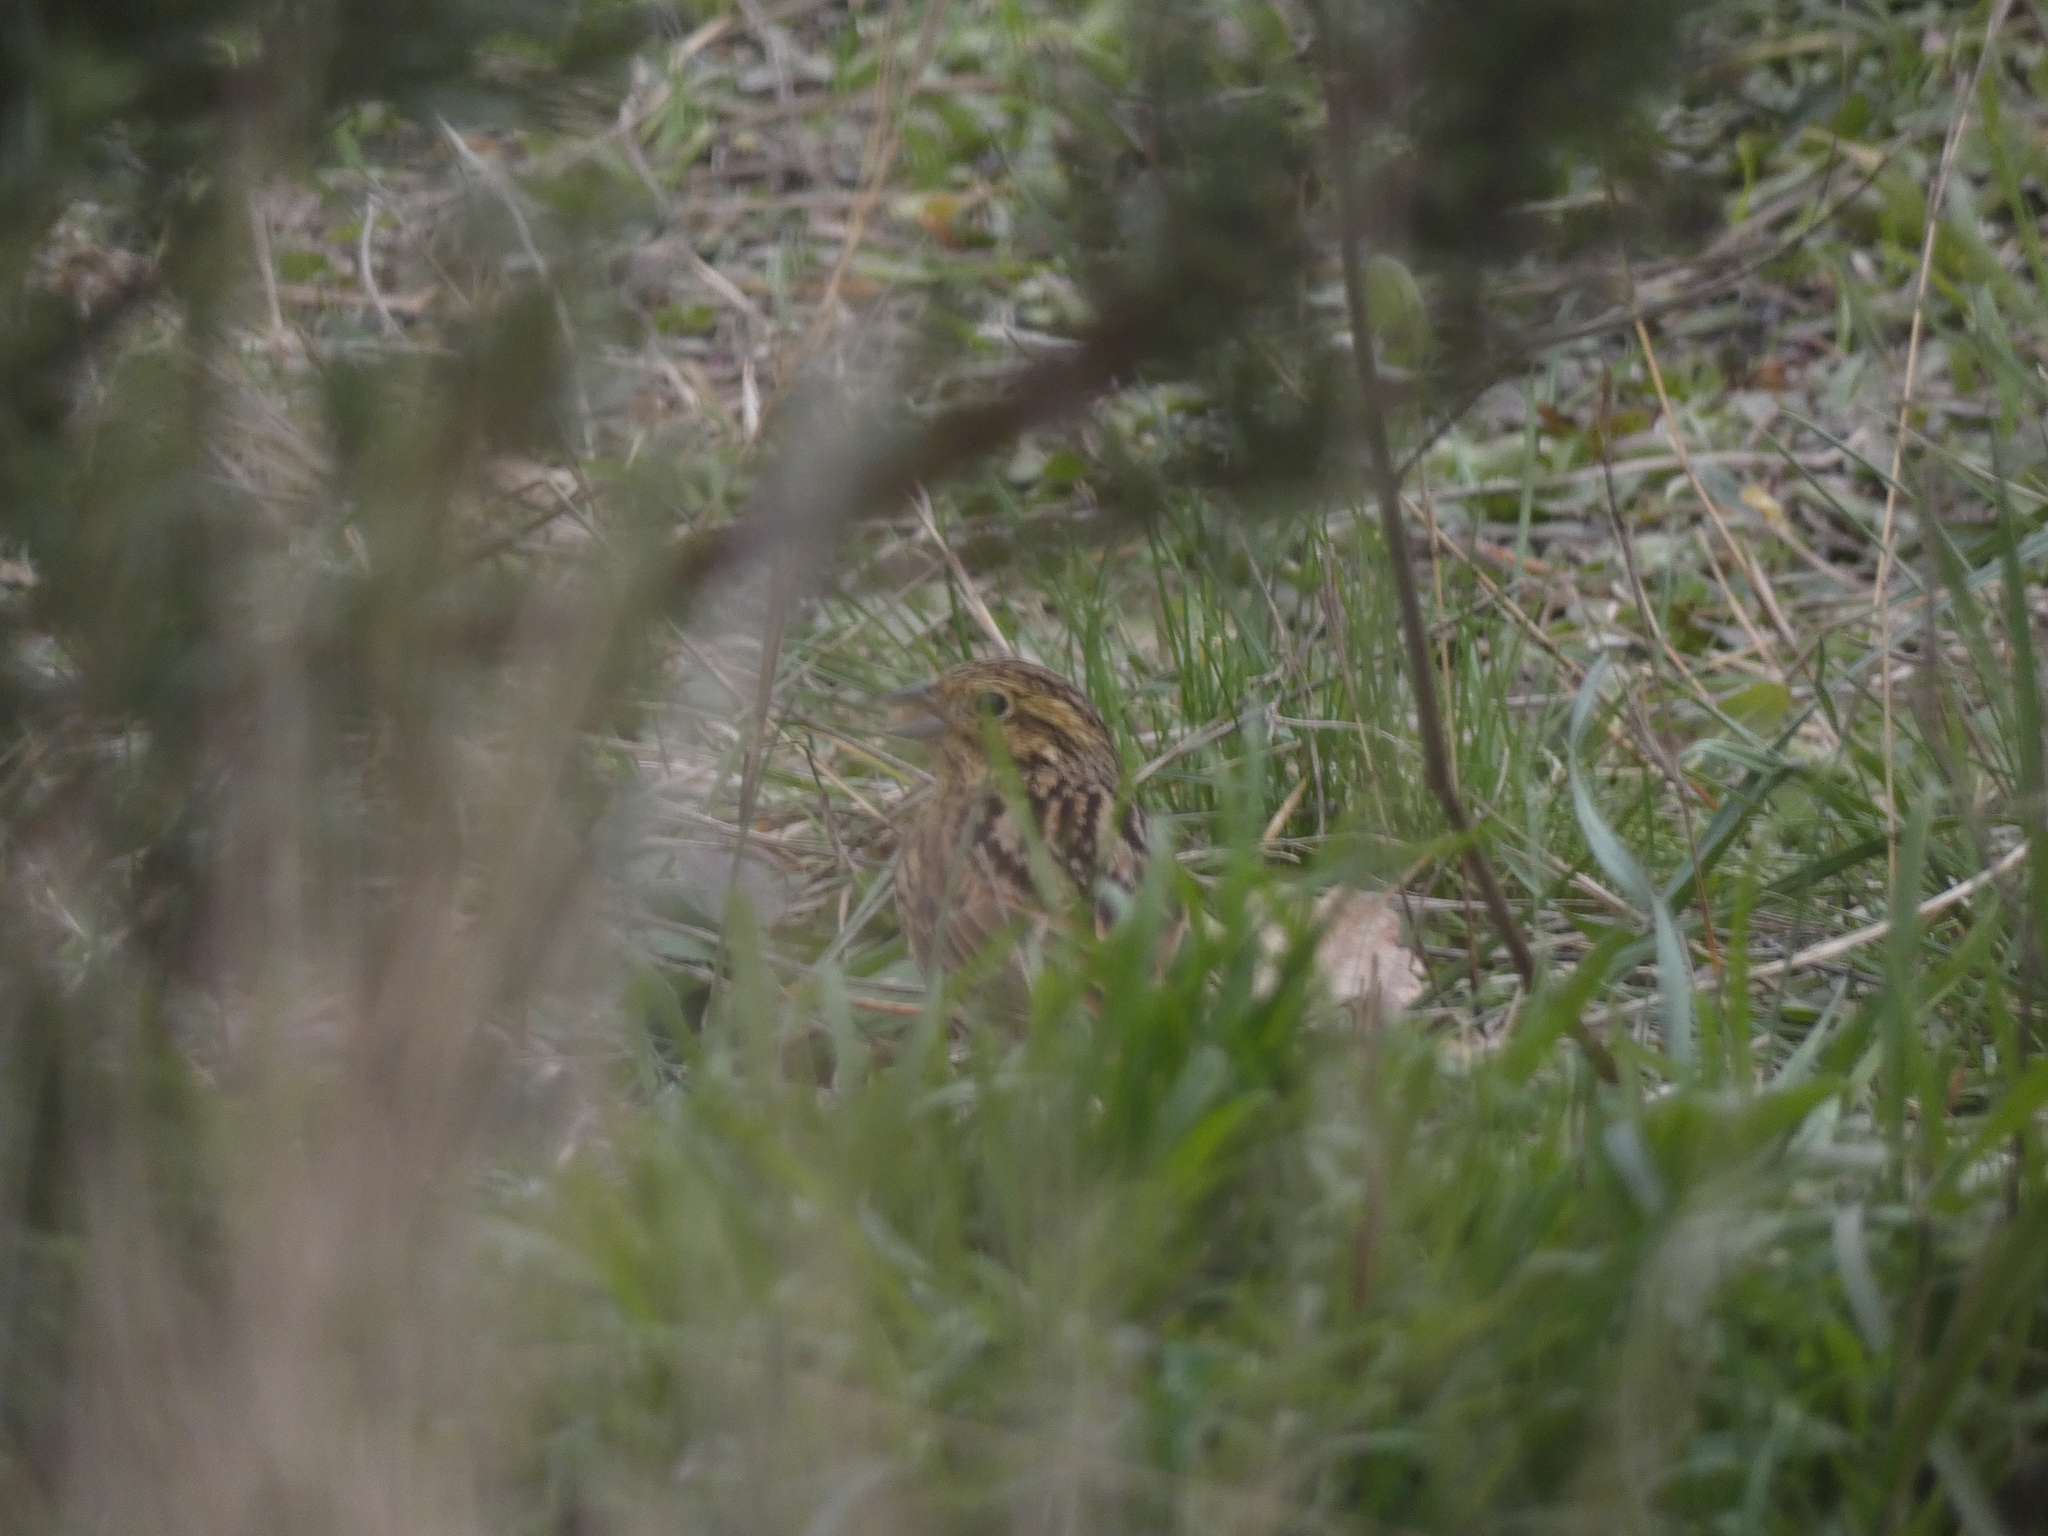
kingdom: Animalia
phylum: Chordata
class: Aves
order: Passeriformes
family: Emberizidae
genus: Emberiza
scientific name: Emberiza cirlus
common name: Cirl bunting
